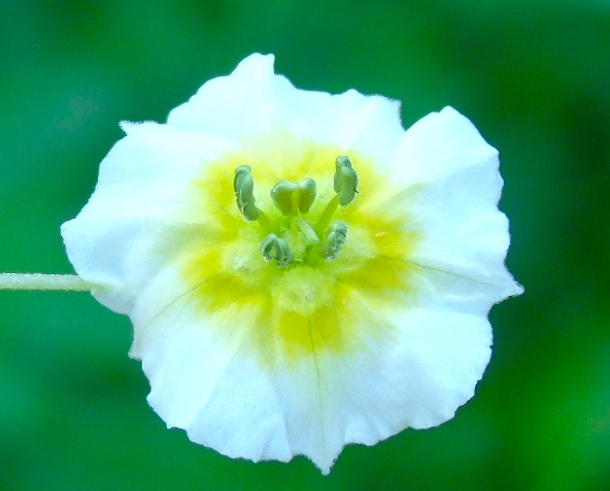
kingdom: Plantae
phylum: Tracheophyta
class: Magnoliopsida
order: Solanales
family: Solanaceae
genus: Physalis
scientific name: Physalis acutifolia
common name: Wright's ground-cherry
